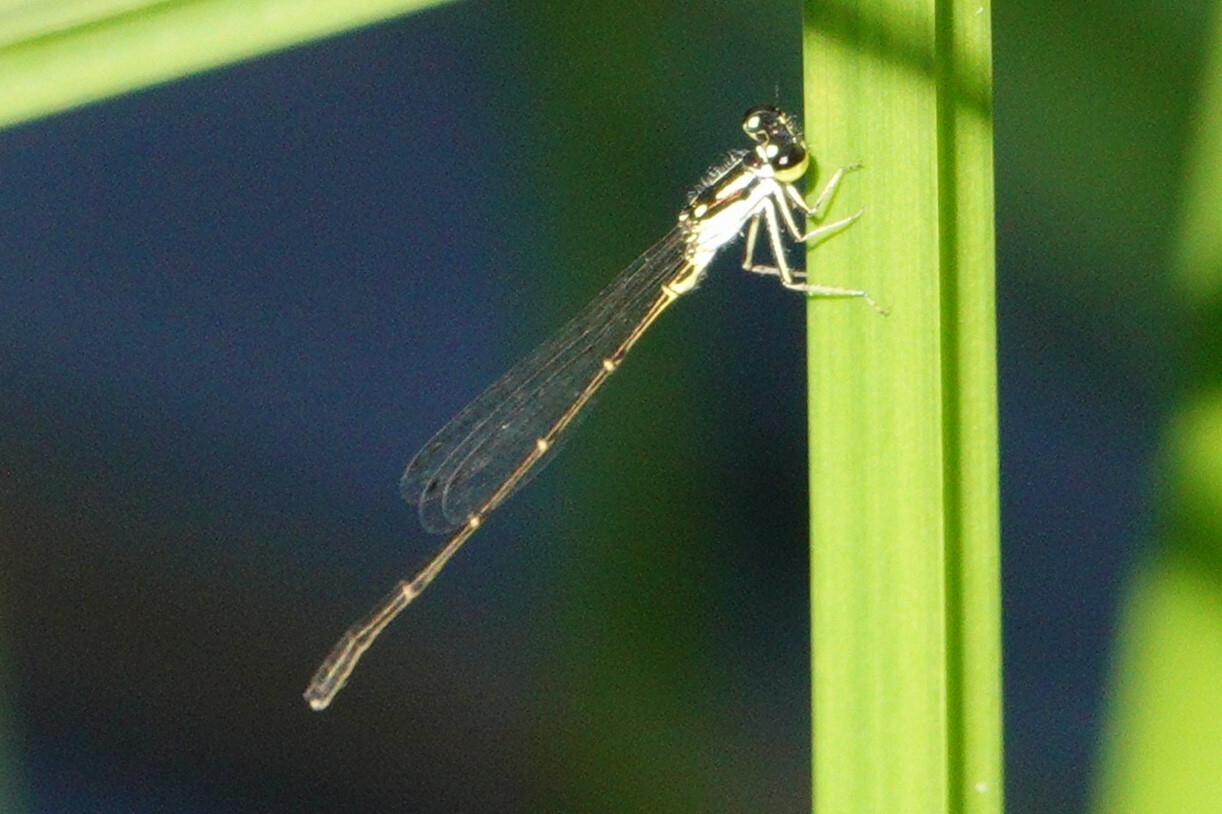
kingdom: Animalia
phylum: Arthropoda
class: Insecta
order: Odonata
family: Coenagrionidae
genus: Ischnura
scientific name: Ischnura posita
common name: Fragile forktail
